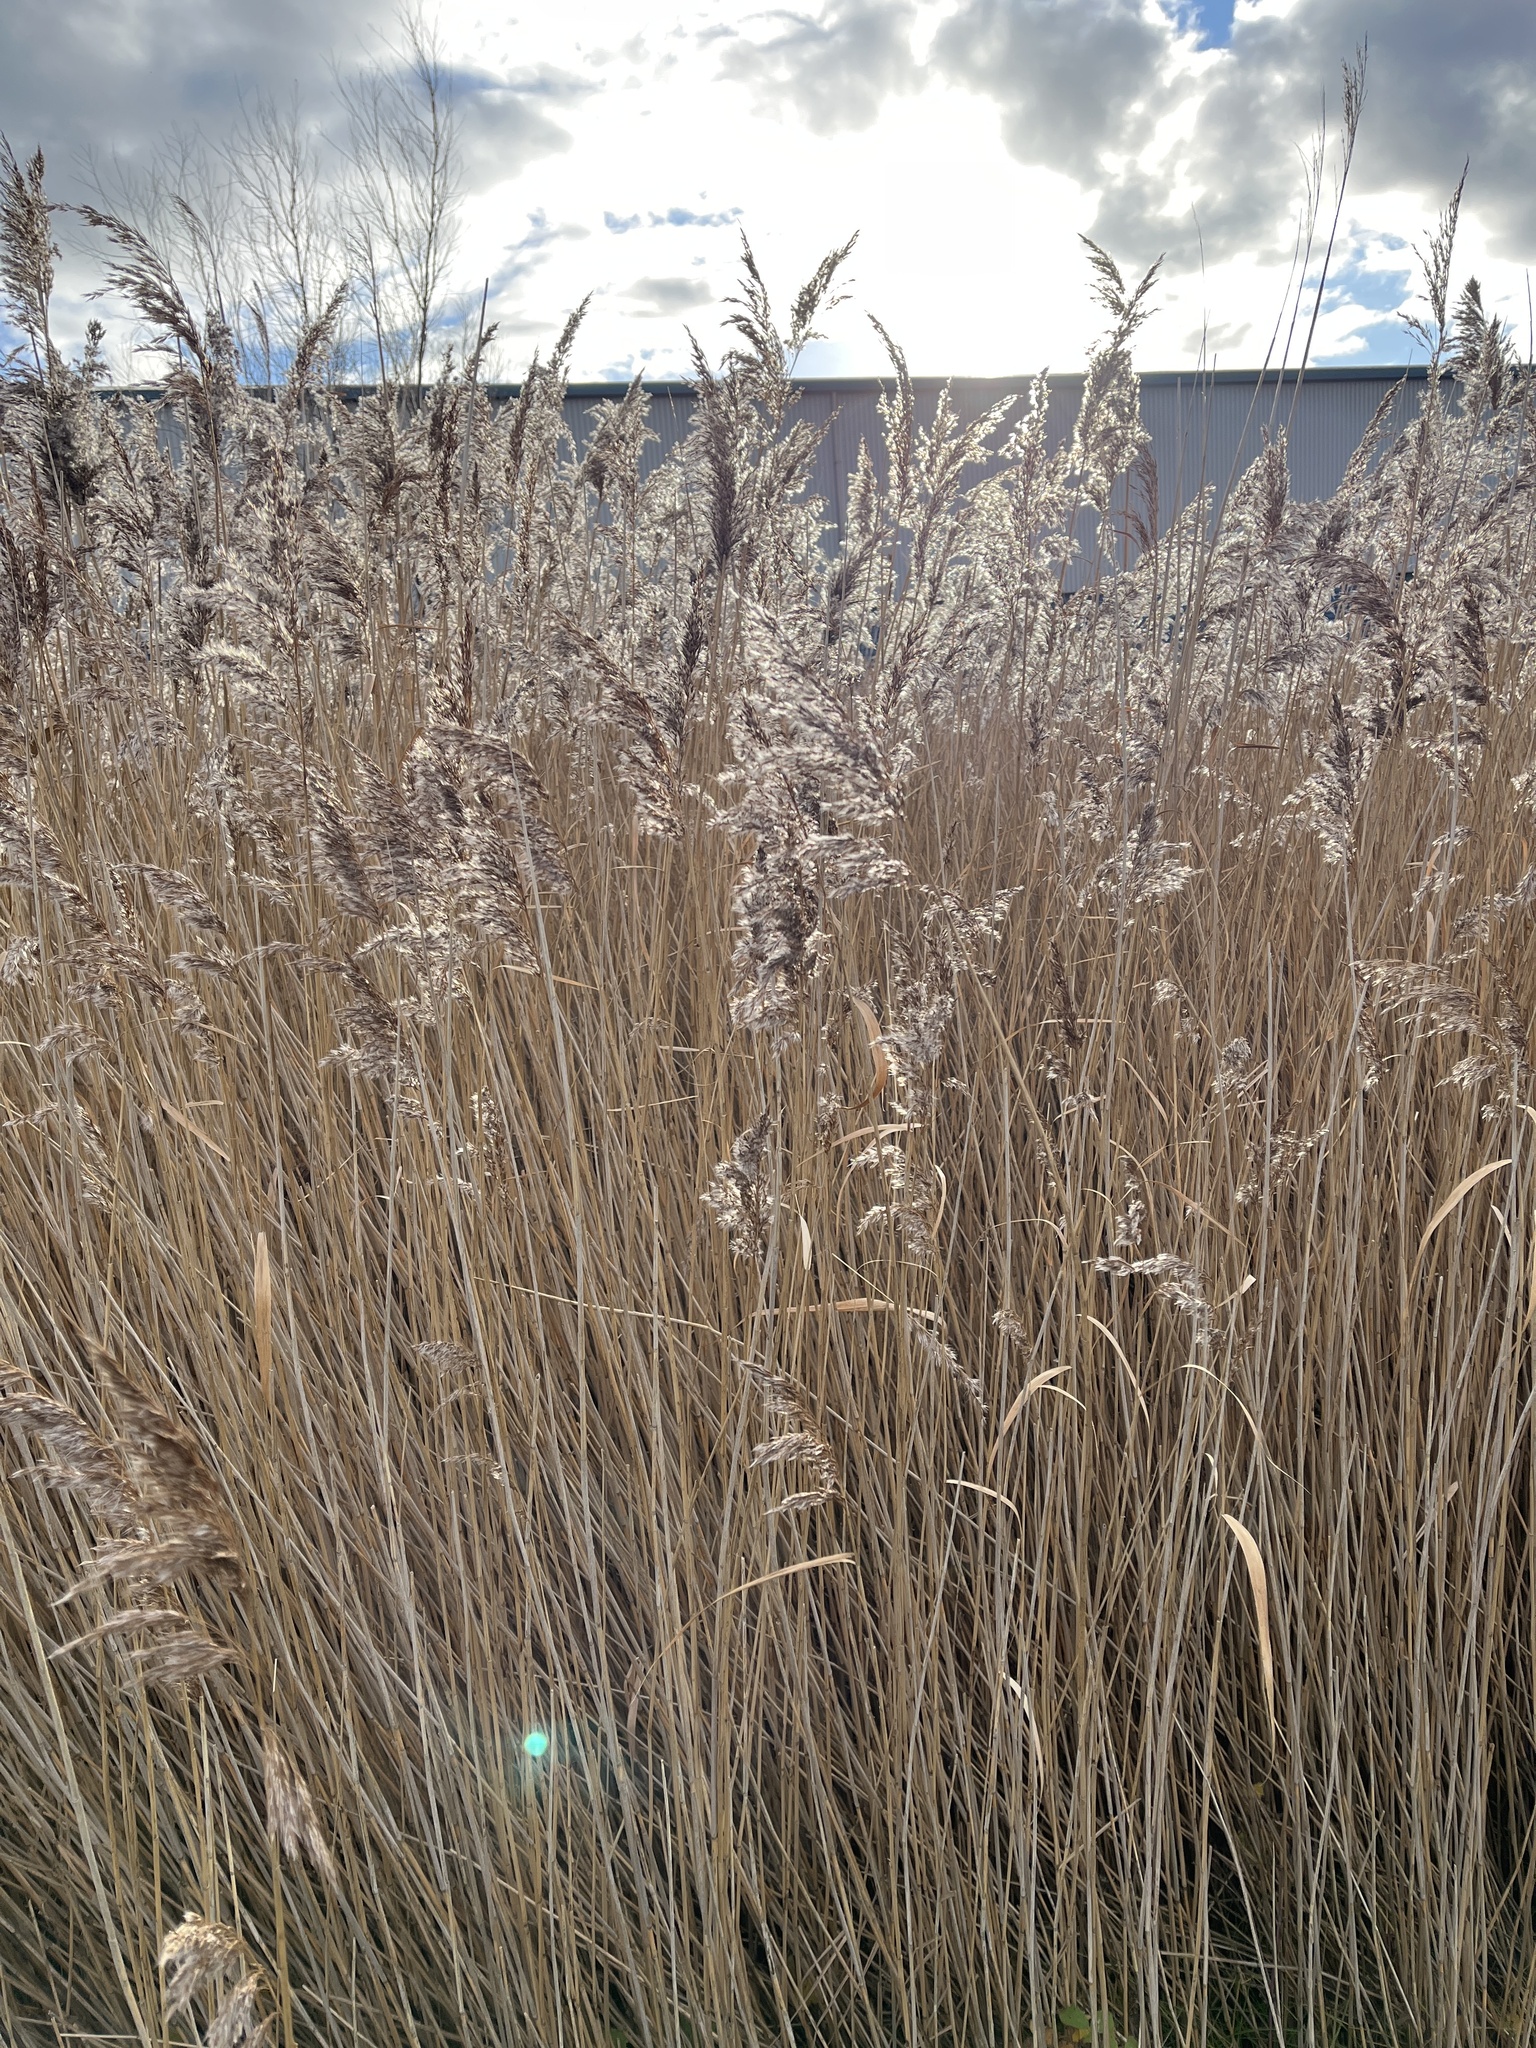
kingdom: Plantae
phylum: Tracheophyta
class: Liliopsida
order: Poales
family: Poaceae
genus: Phragmites
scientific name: Phragmites australis
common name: Common reed
